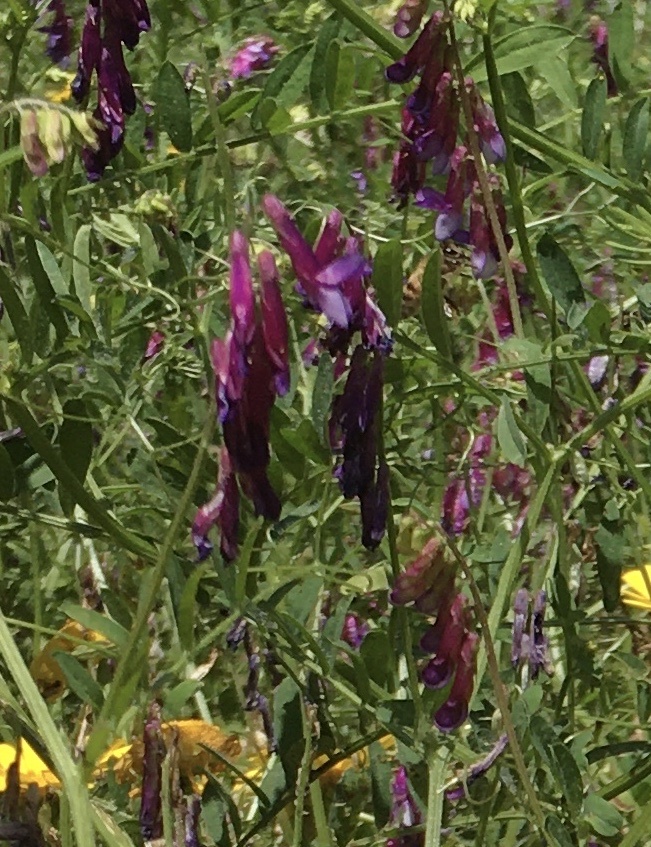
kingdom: Plantae
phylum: Tracheophyta
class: Magnoliopsida
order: Fabales
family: Fabaceae
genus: Vicia
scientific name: Vicia villosa
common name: Fodder vetch
